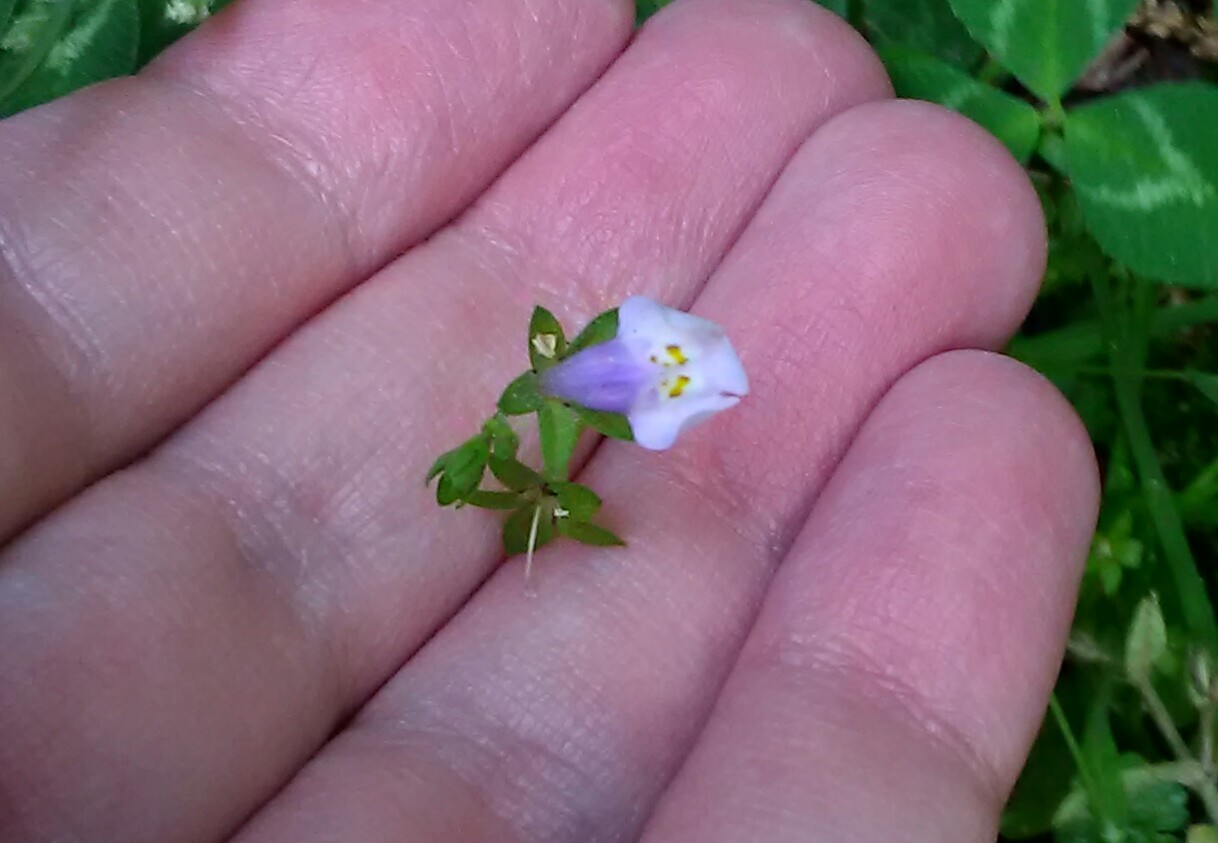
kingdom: Plantae
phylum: Tracheophyta
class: Magnoliopsida
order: Lamiales
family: Mazaceae
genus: Mazus
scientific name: Mazus pumilus
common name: Japanese mazus
